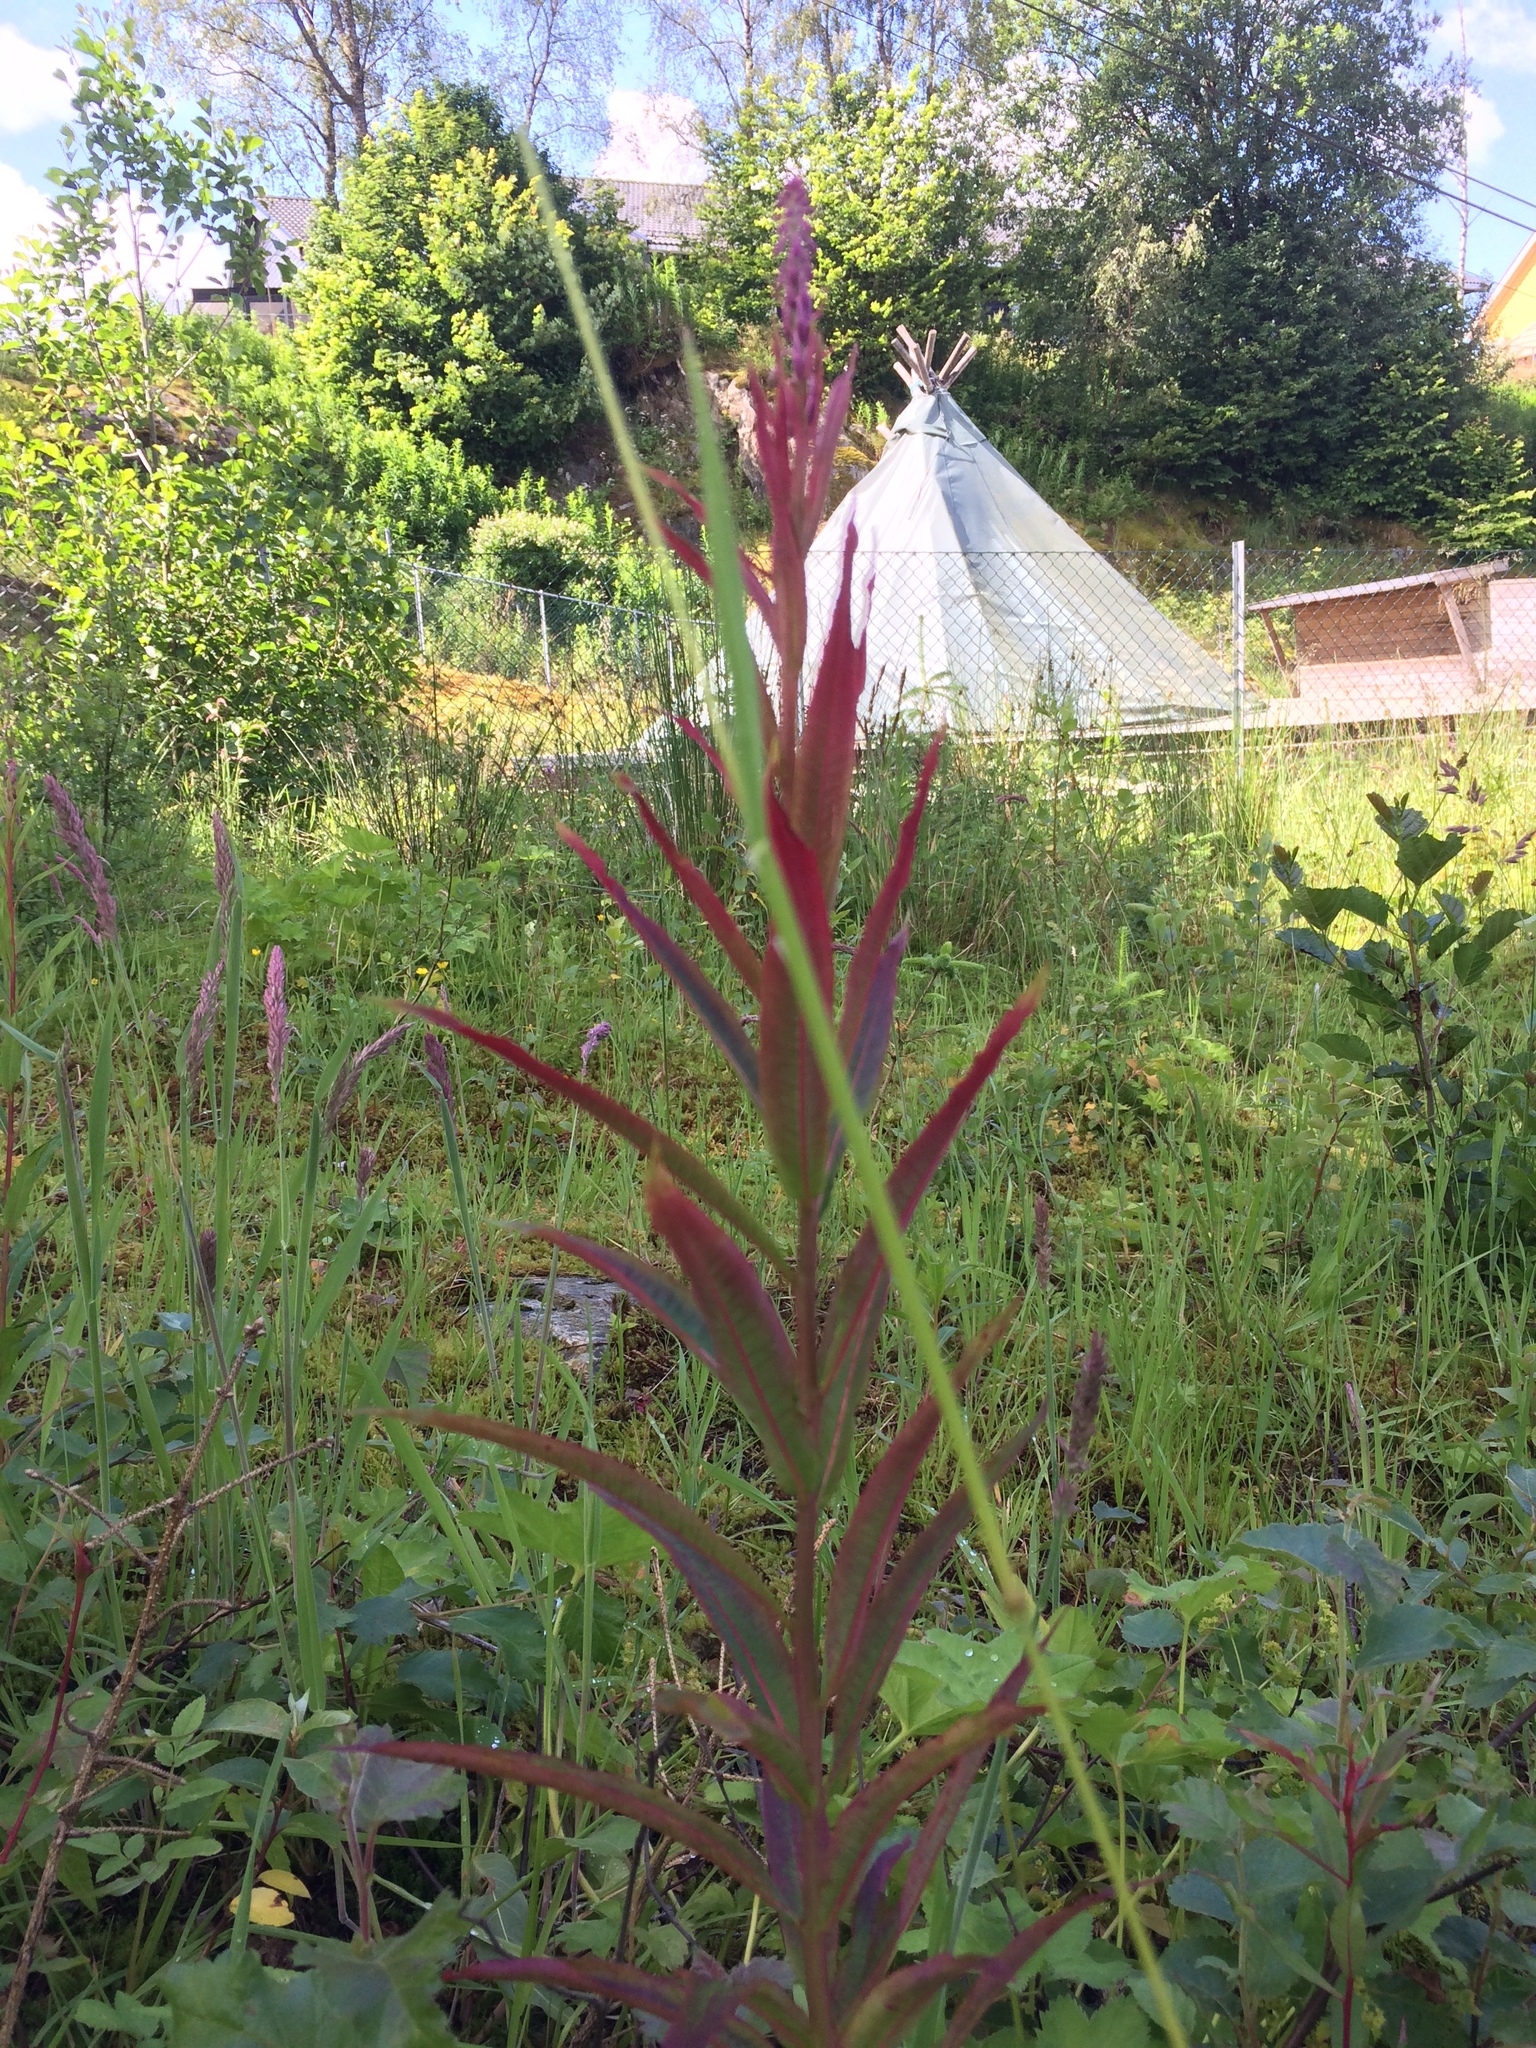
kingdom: Plantae
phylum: Tracheophyta
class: Magnoliopsida
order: Myrtales
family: Onagraceae
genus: Chamaenerion
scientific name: Chamaenerion angustifolium
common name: Fireweed
